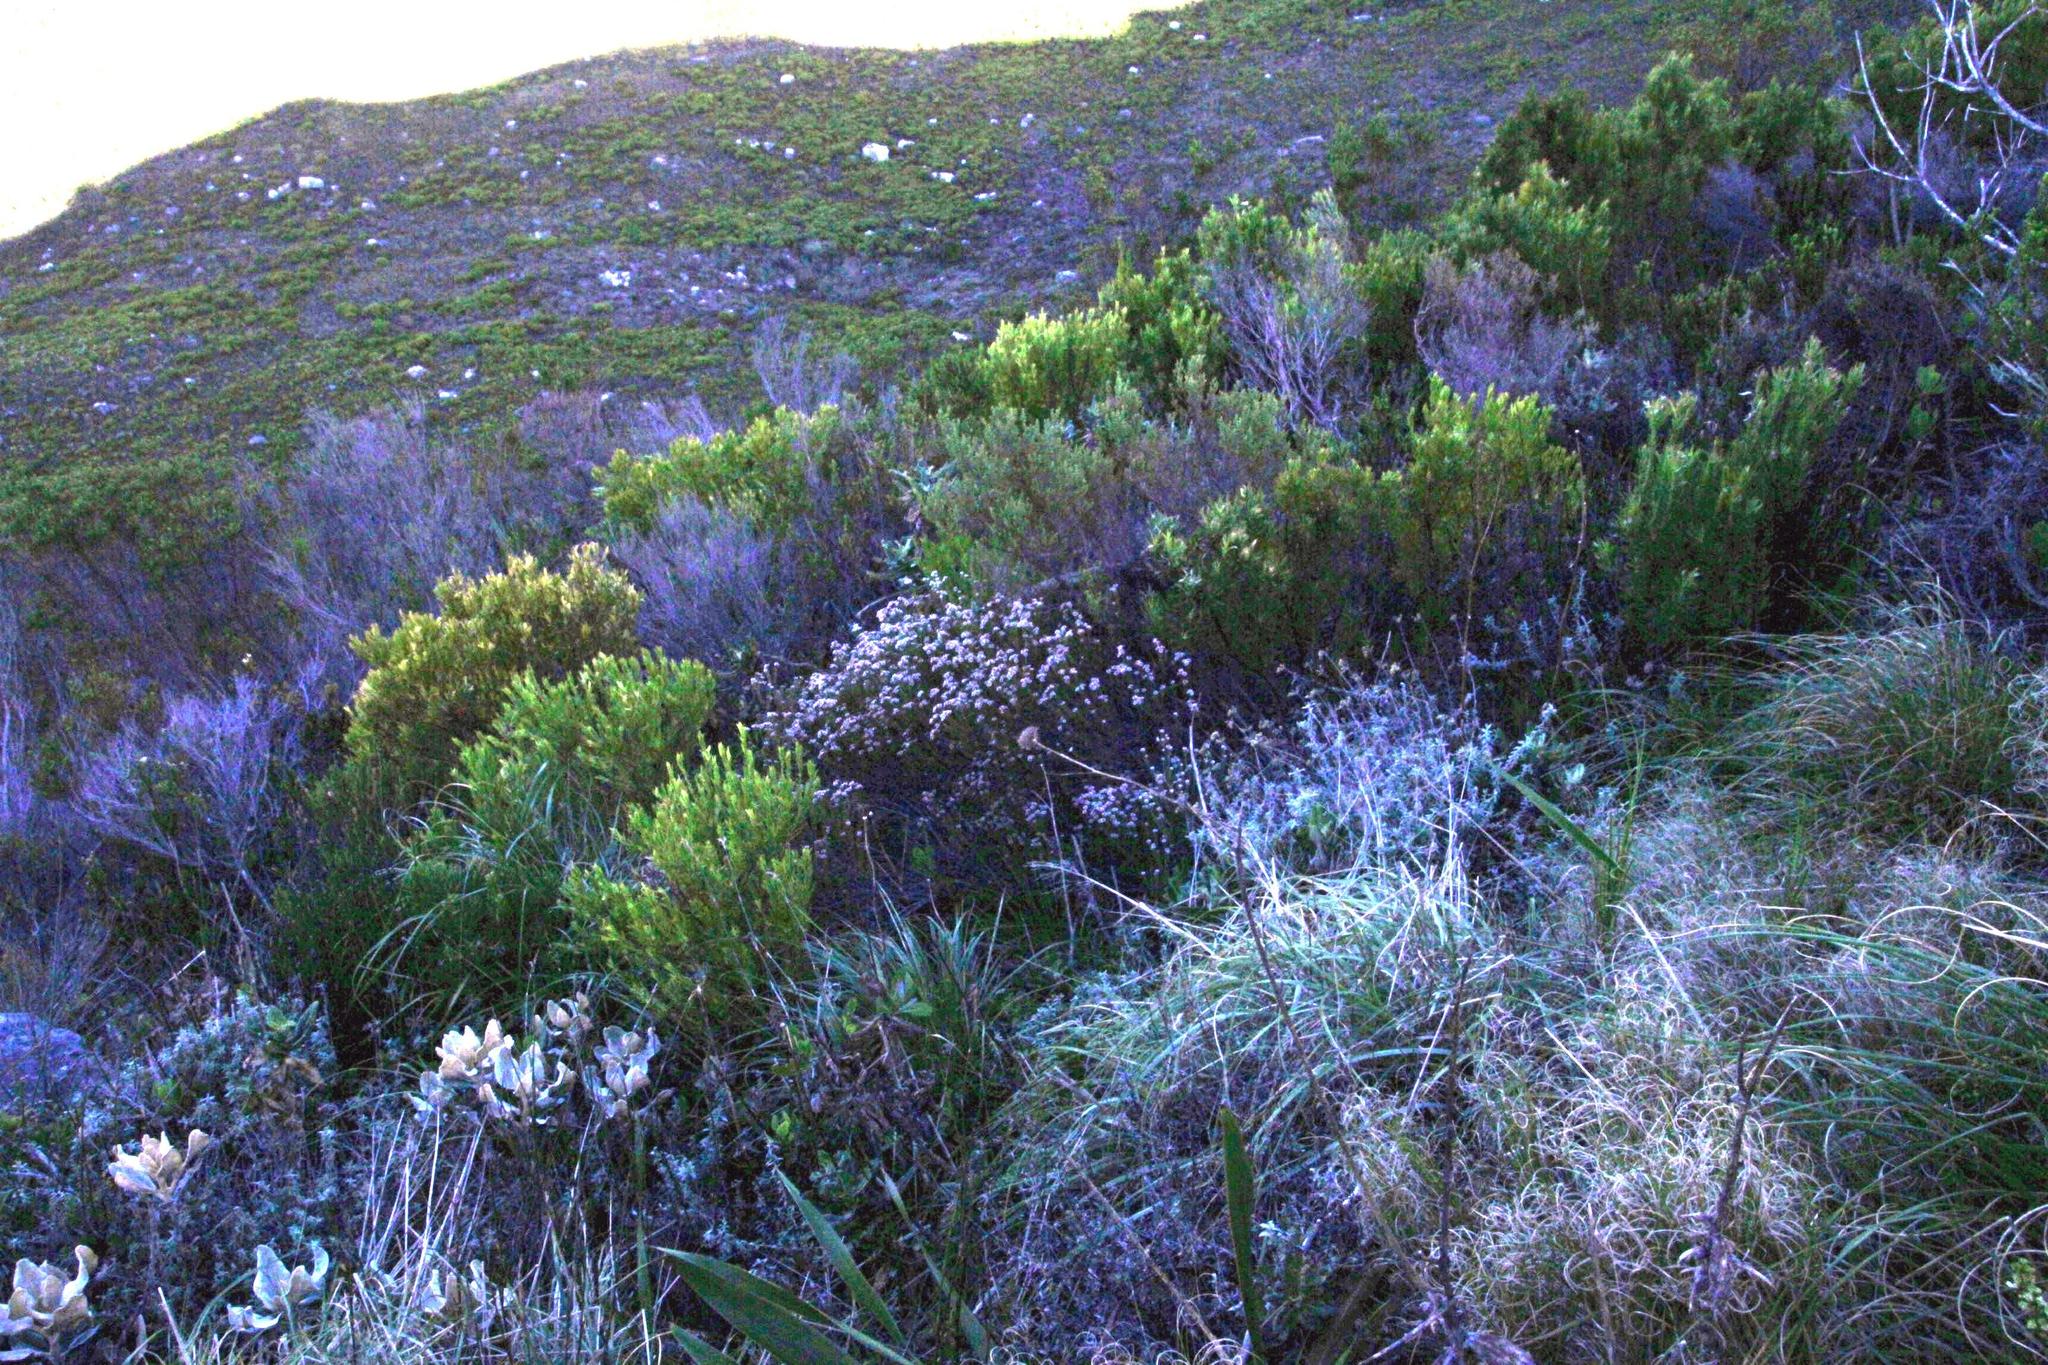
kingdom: Plantae
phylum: Tracheophyta
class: Magnoliopsida
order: Bruniales
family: Bruniaceae
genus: Staavia
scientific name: Staavia radiata
